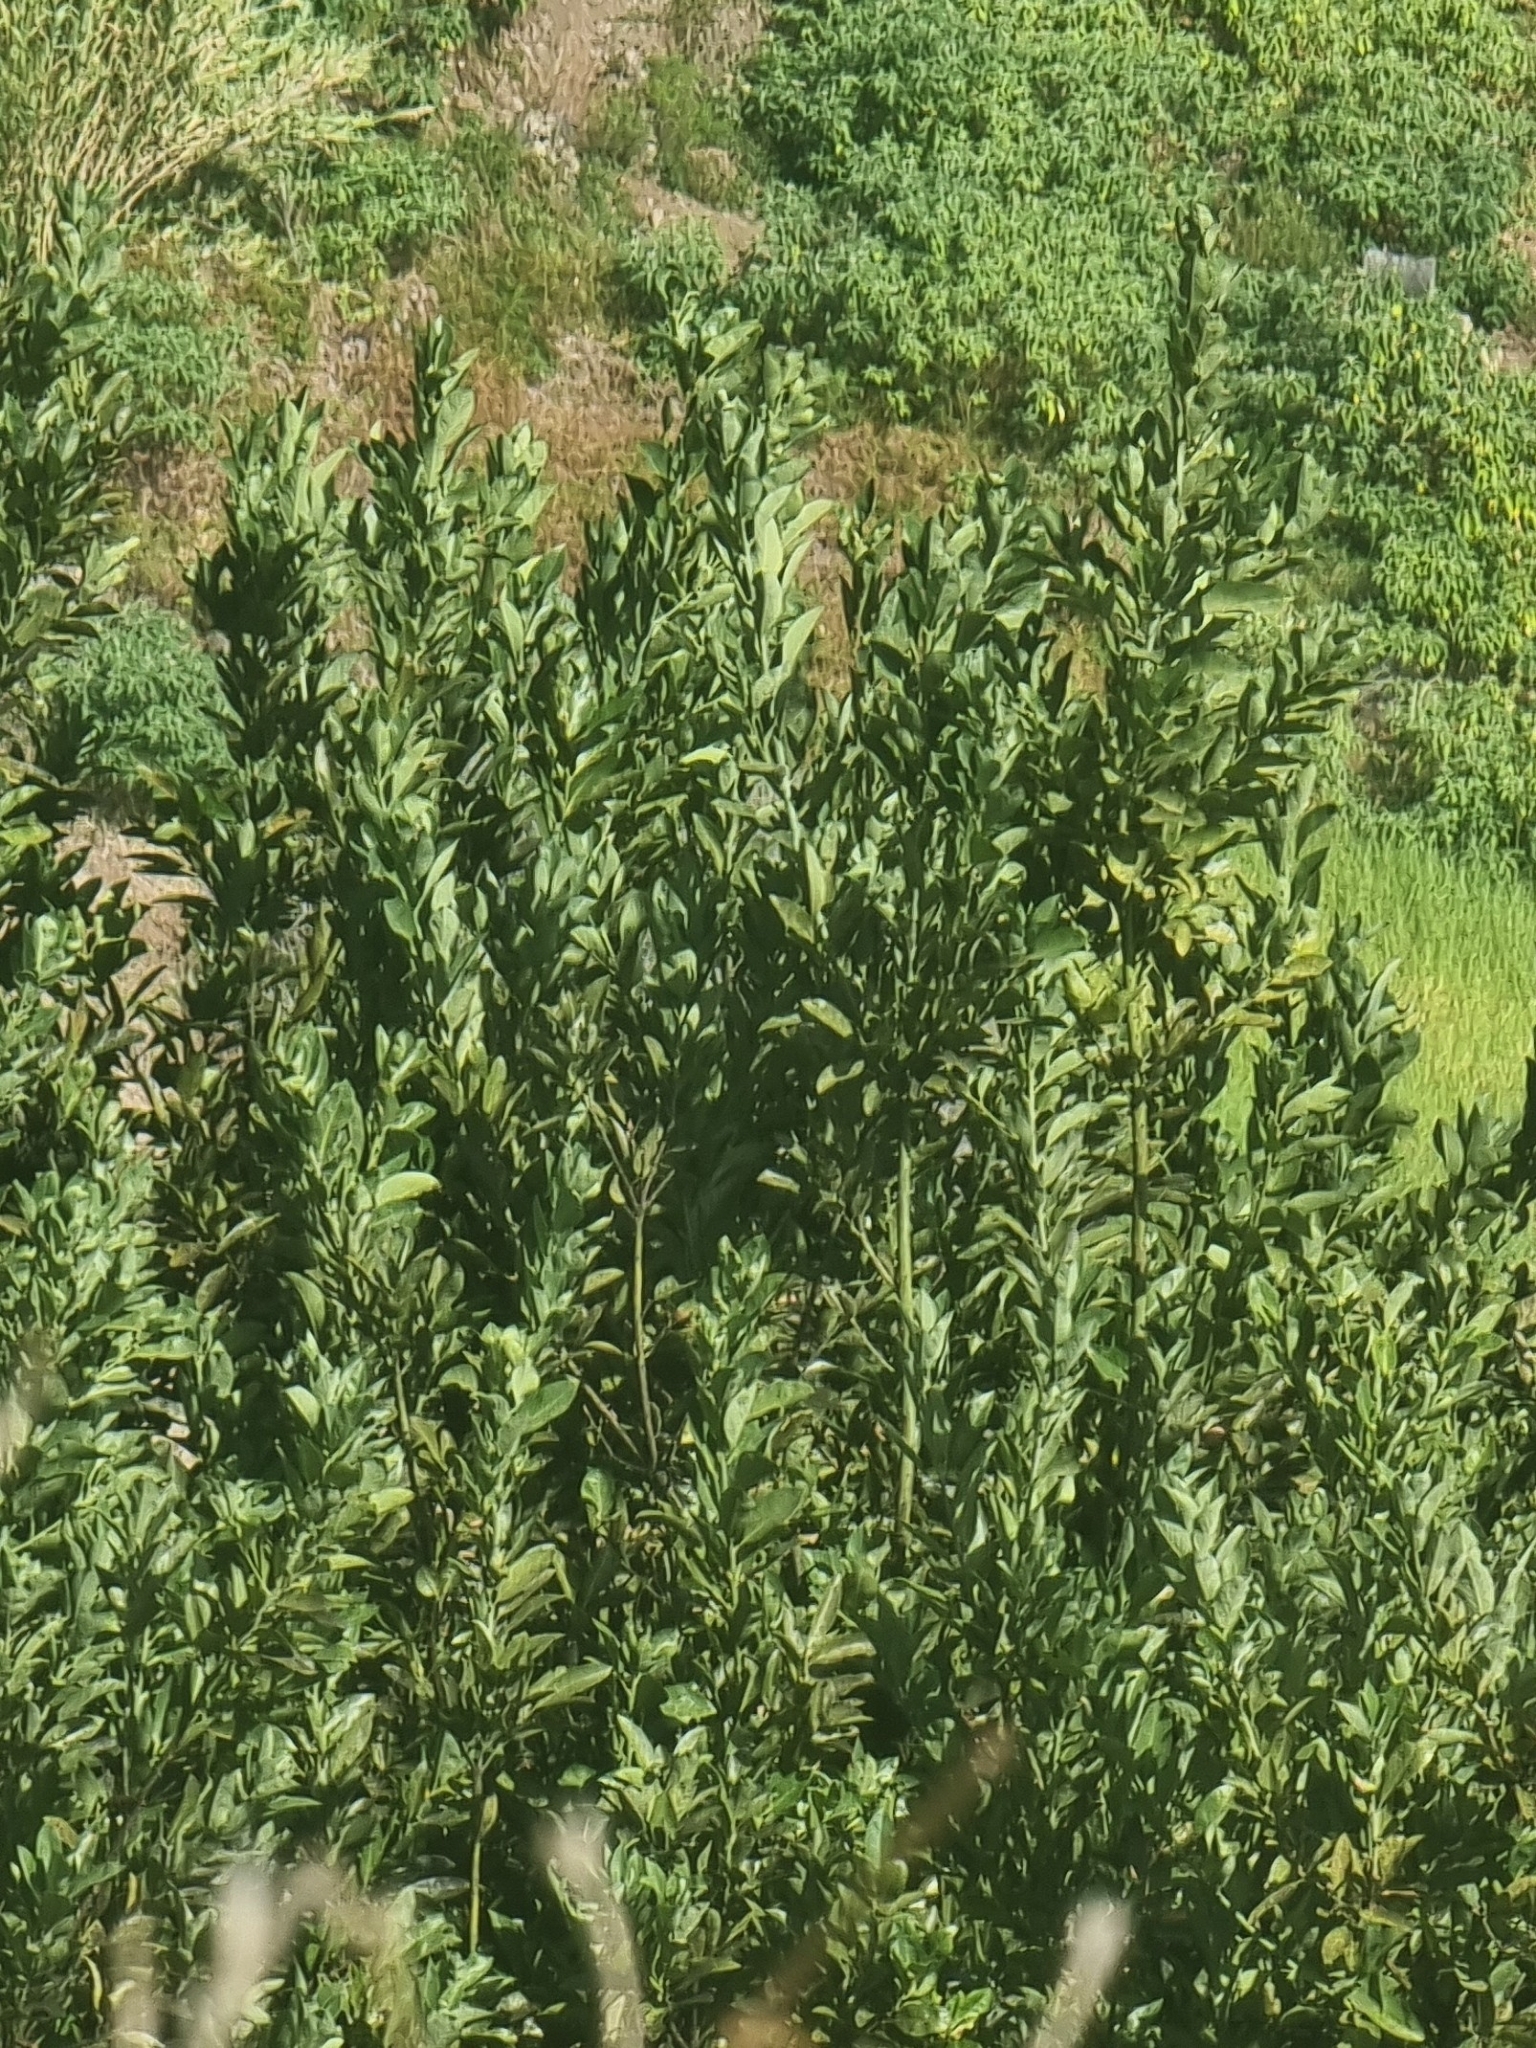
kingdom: Plantae
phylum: Tracheophyta
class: Magnoliopsida
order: Laurales
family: Lauraceae
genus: Laurus
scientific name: Laurus novocanariensis
